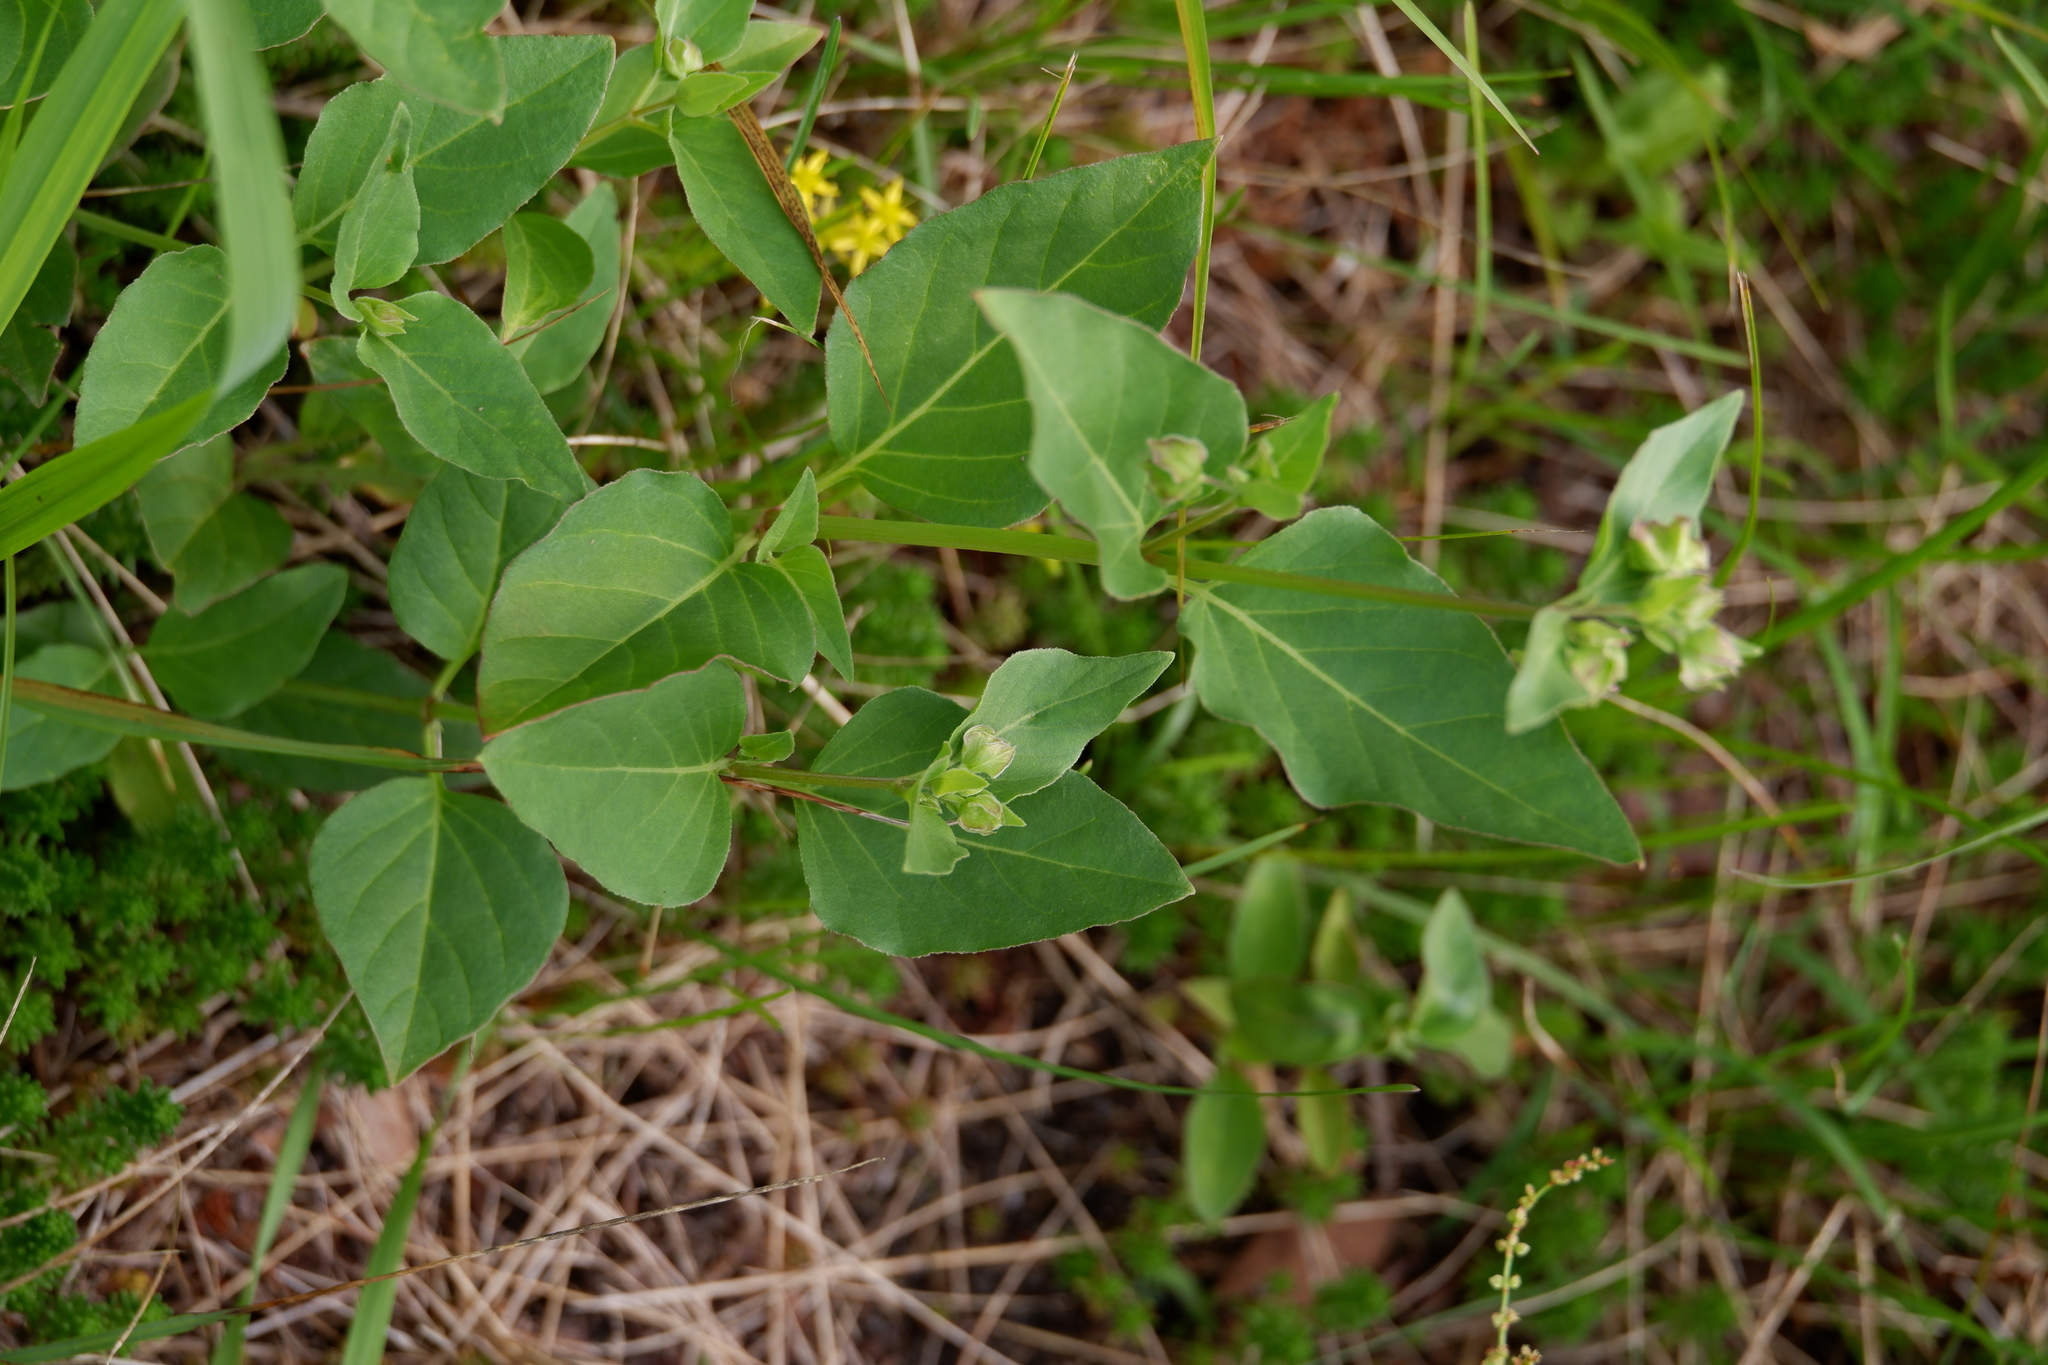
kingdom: Plantae
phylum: Tracheophyta
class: Magnoliopsida
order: Caryophyllales
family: Nyctaginaceae
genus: Mirabilis
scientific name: Mirabilis nyctaginea
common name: Umbrella wort
